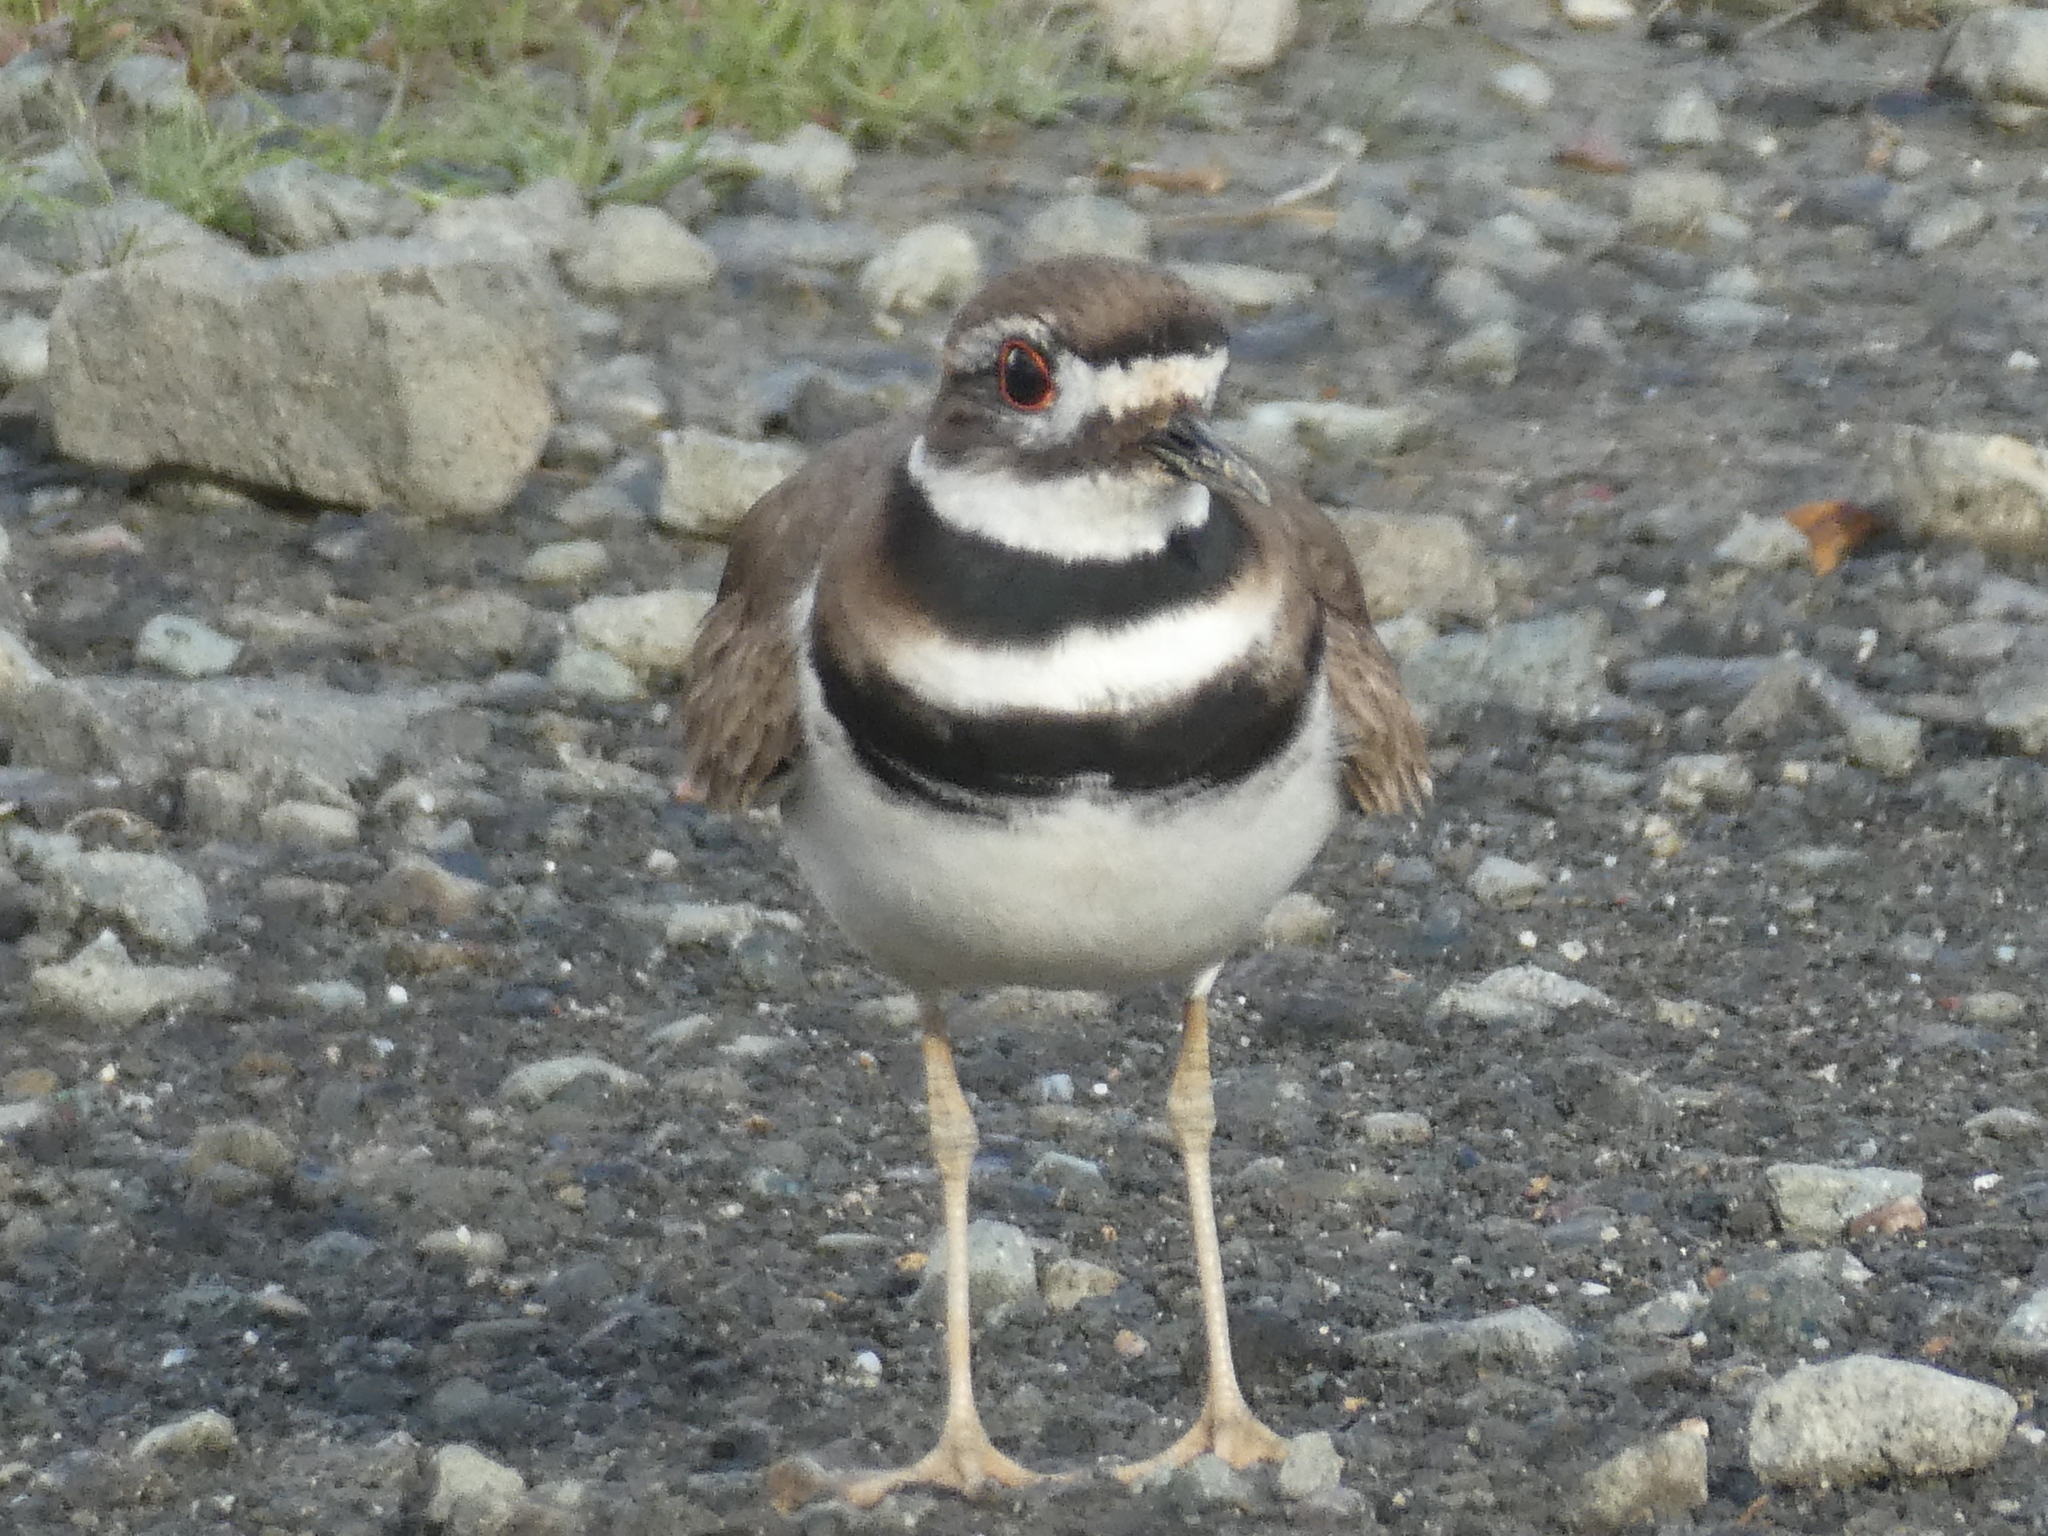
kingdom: Animalia
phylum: Chordata
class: Aves
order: Charadriiformes
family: Charadriidae
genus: Charadrius
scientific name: Charadrius vociferus
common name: Killdeer
